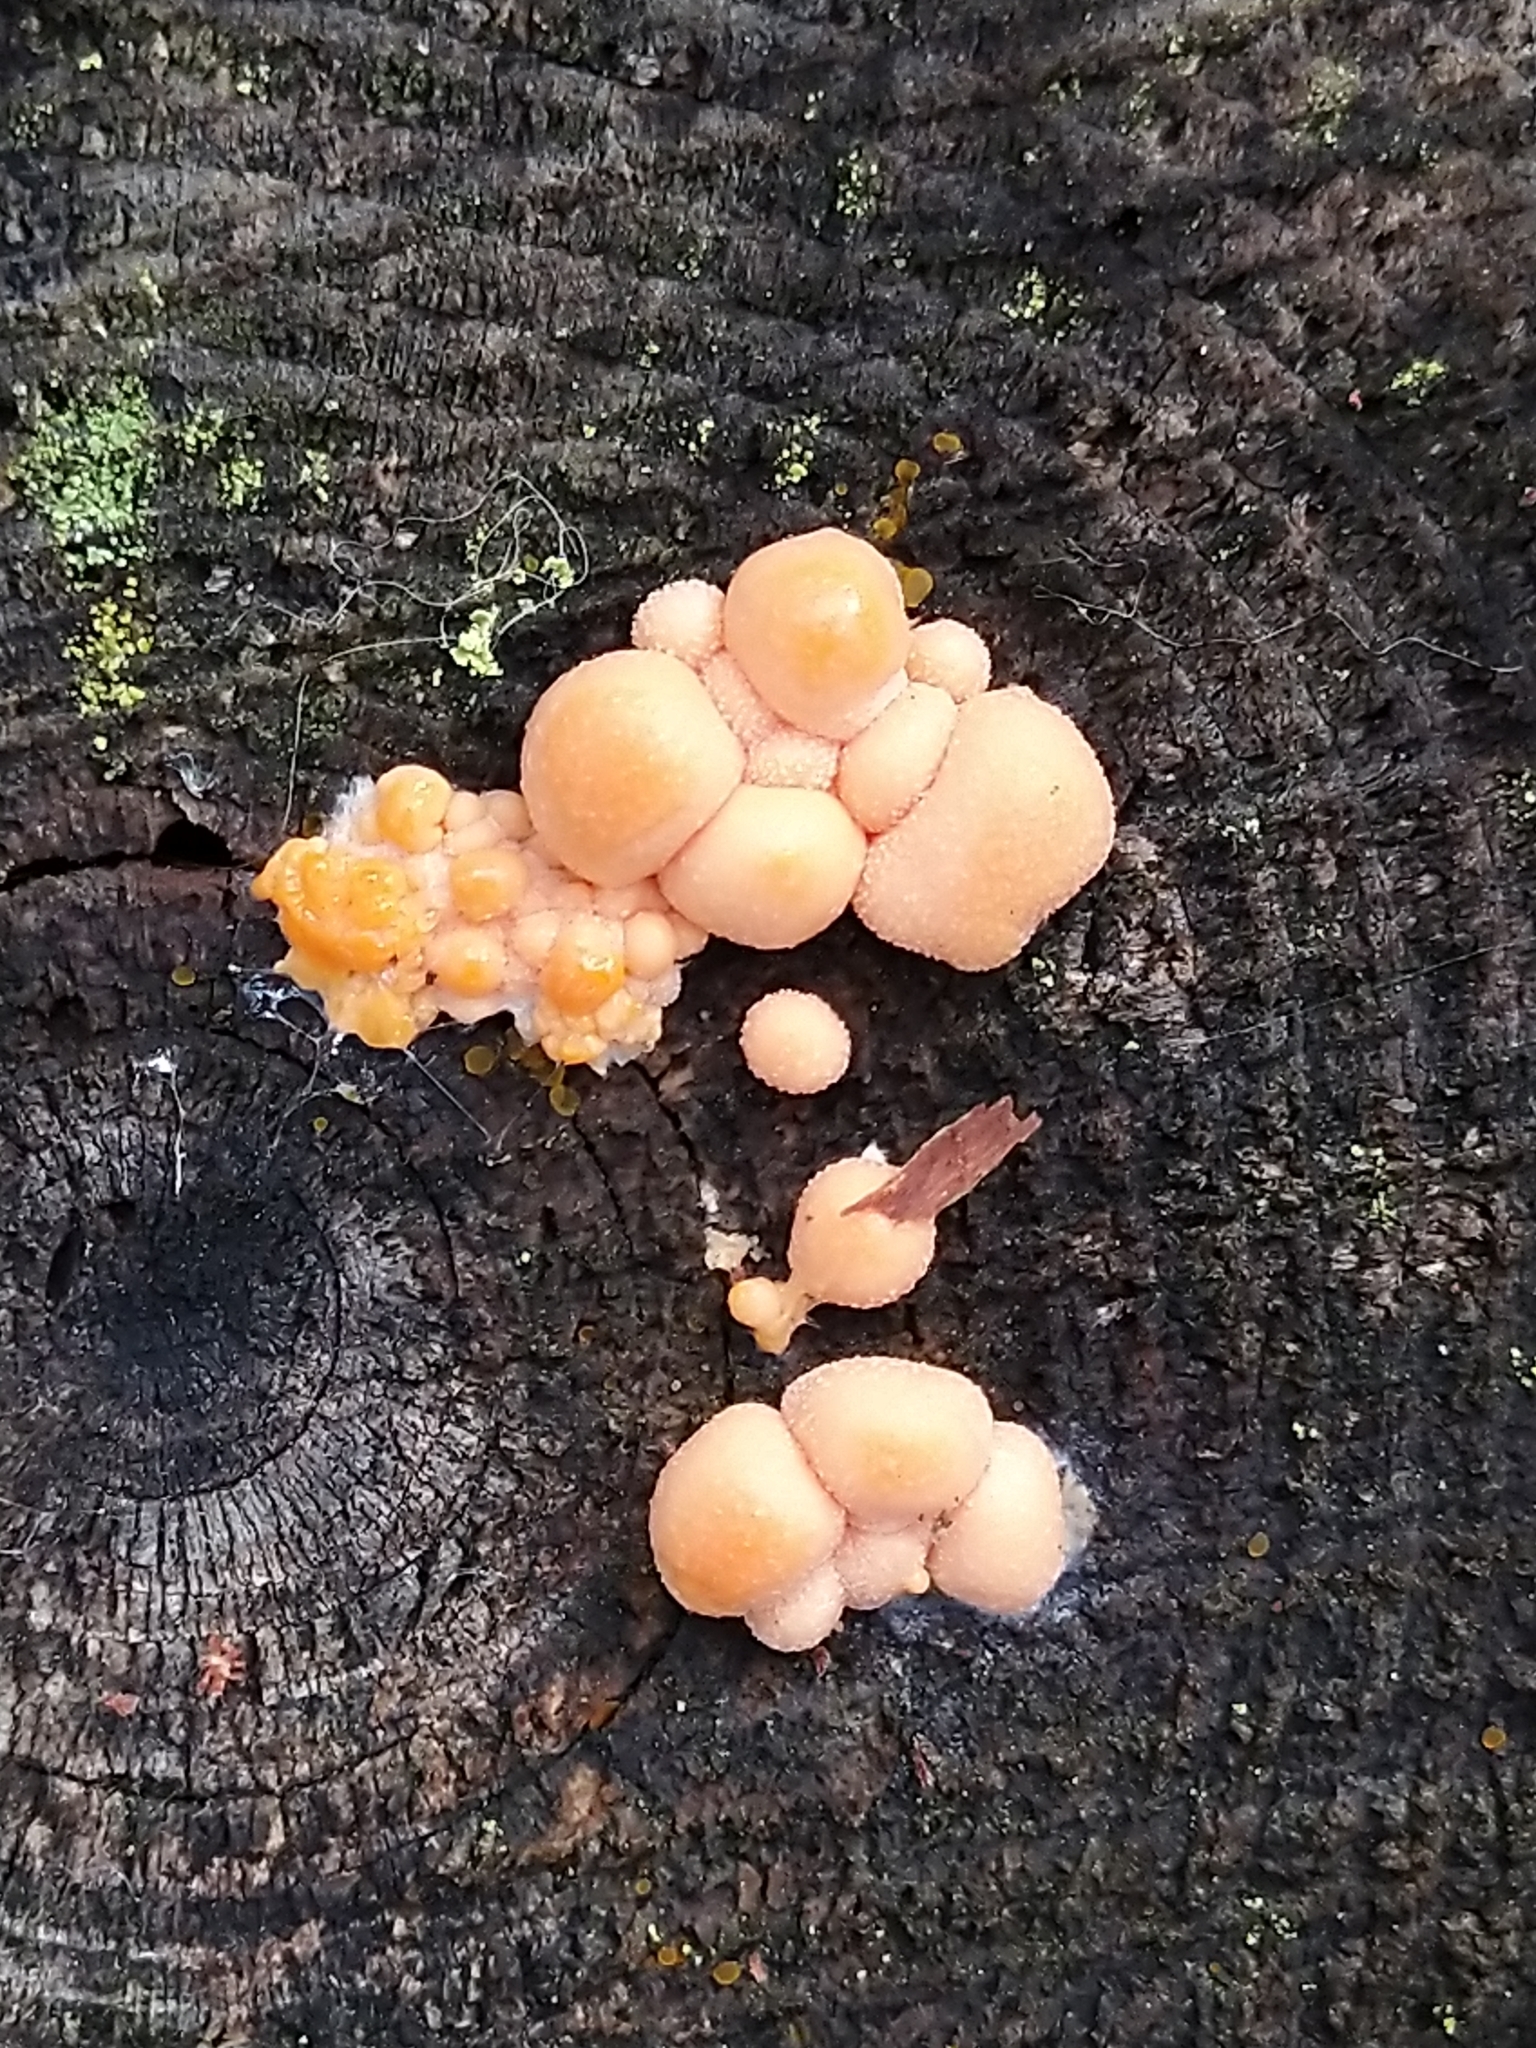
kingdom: Protozoa
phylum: Mycetozoa
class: Myxomycetes
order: Cribrariales
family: Tubiferaceae
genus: Lycogala
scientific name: Lycogala epidendrum
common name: Wolf's milk
